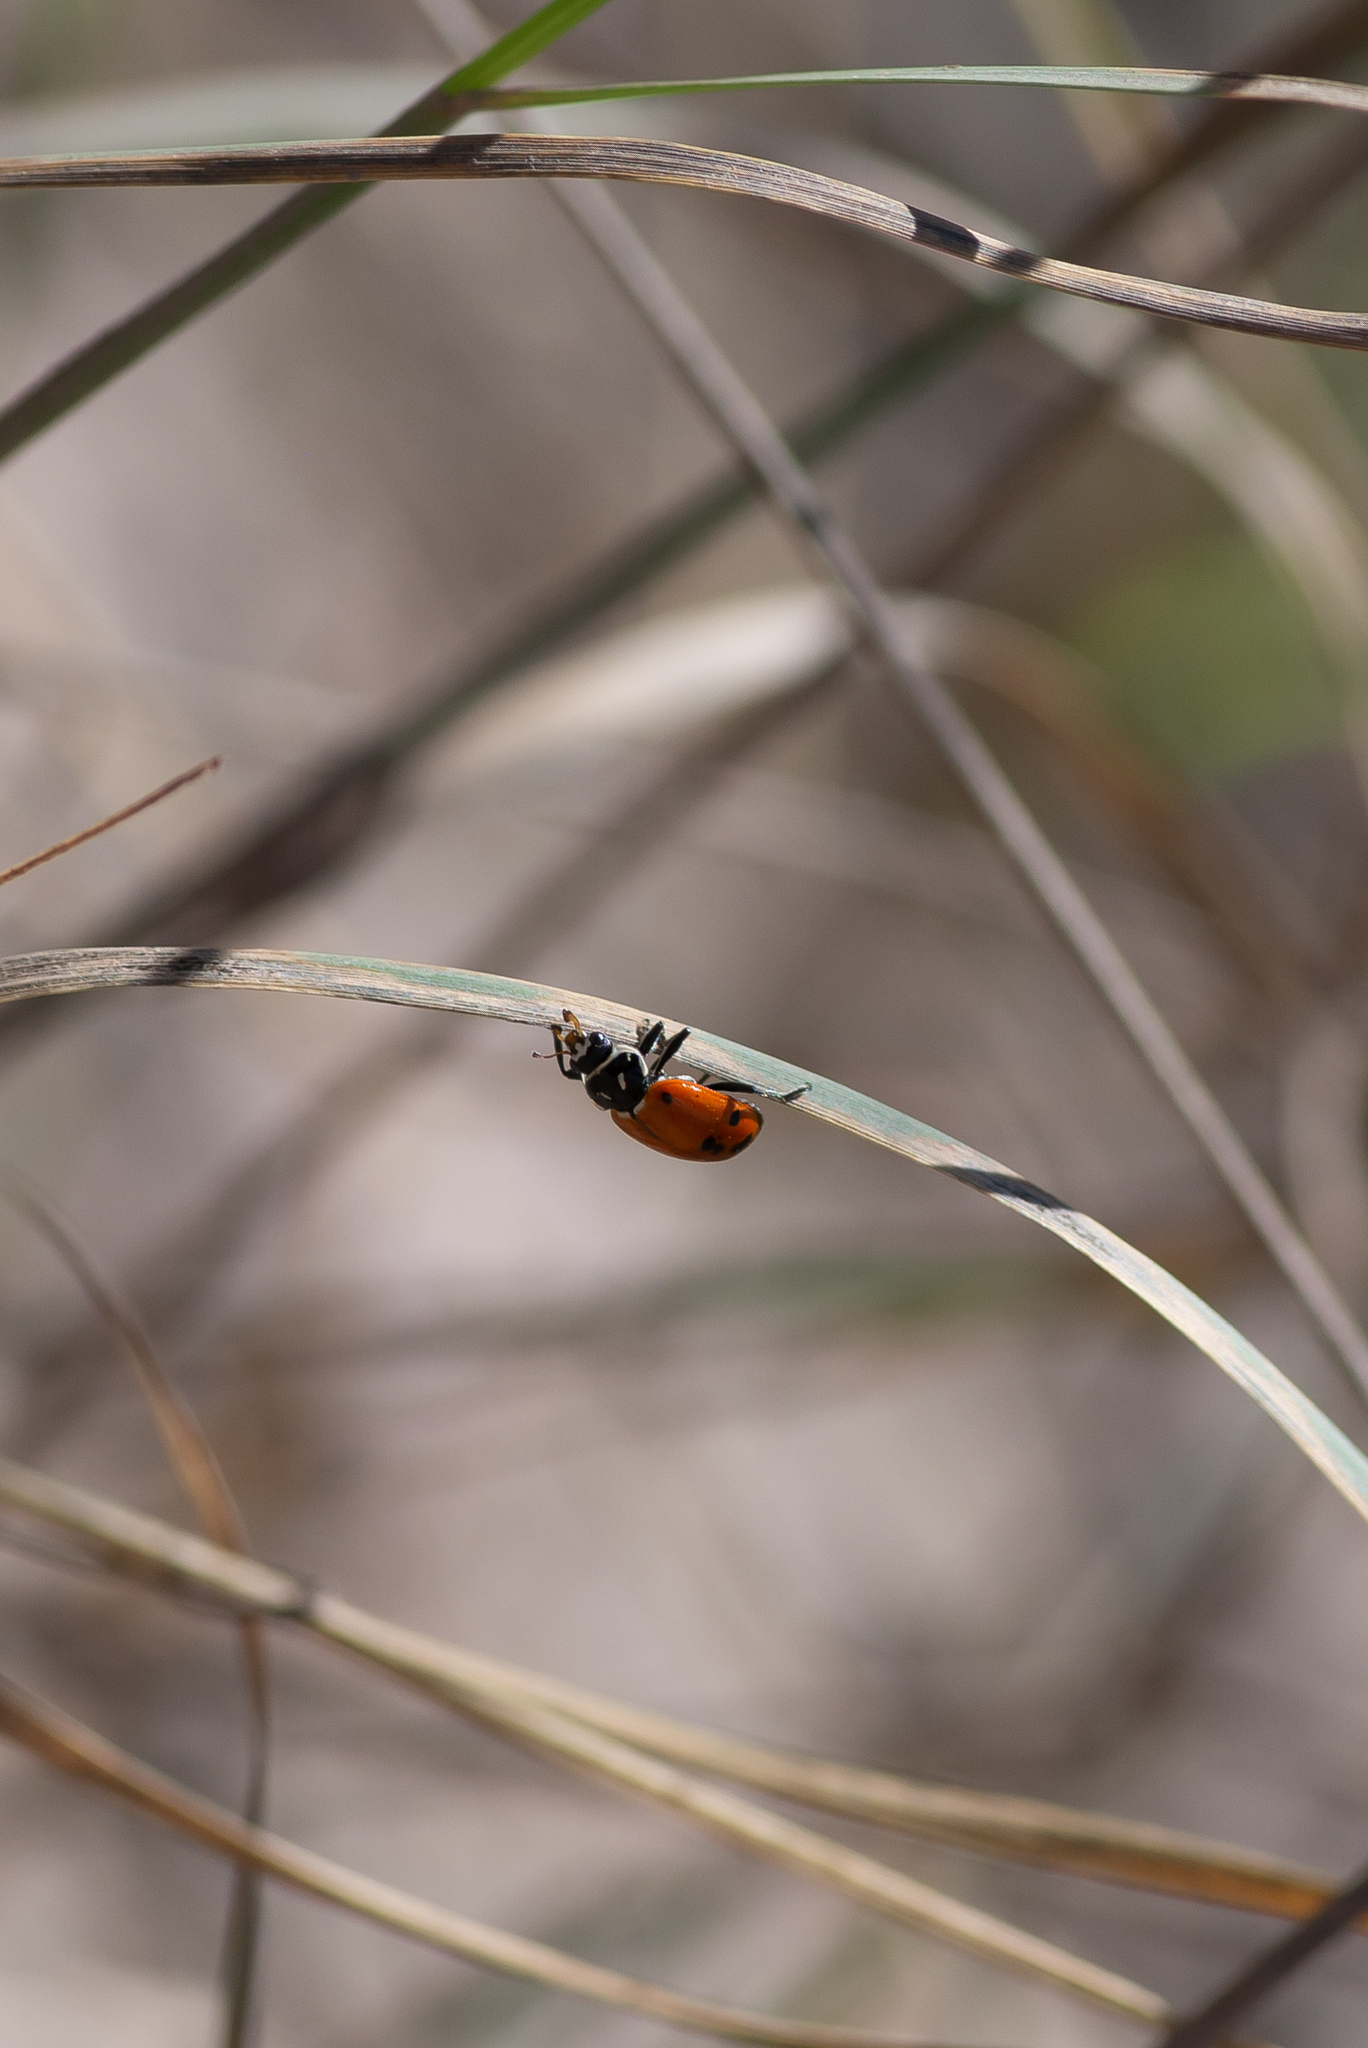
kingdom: Animalia
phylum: Arthropoda
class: Insecta
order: Coleoptera
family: Coccinellidae
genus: Hippodamia
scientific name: Hippodamia convergens
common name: Convergent lady beetle
